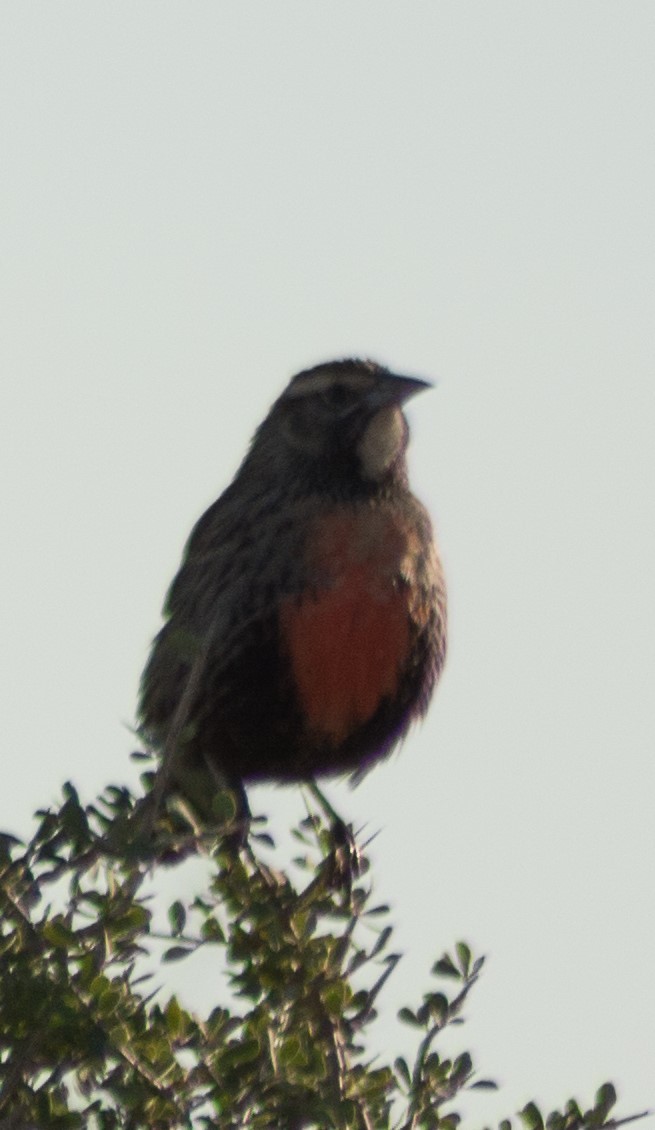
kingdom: Animalia
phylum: Chordata
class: Aves
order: Passeriformes
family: Icteridae
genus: Sturnella
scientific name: Sturnella loyca
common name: Long-tailed meadowlark
